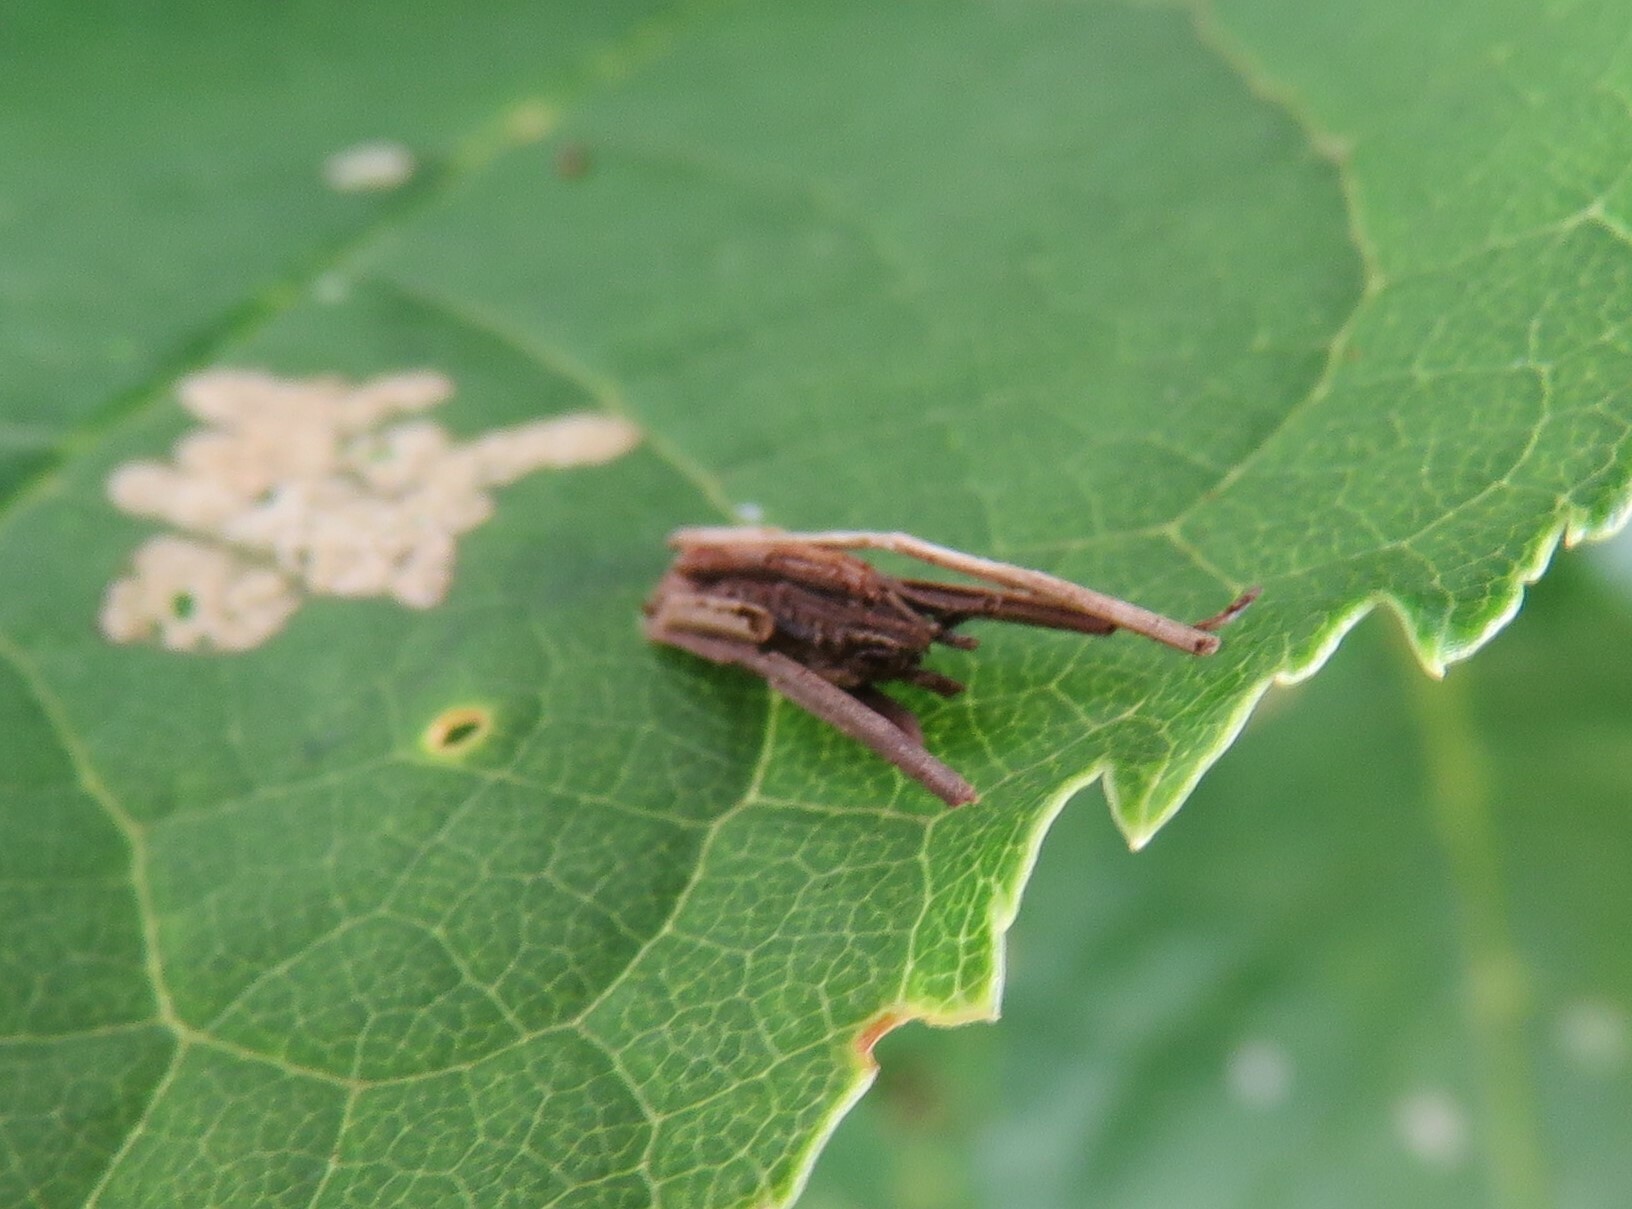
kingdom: Animalia
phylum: Arthropoda
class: Insecta
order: Lepidoptera
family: Psychidae
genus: Psyche
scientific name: Psyche casta
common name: Common sweep
